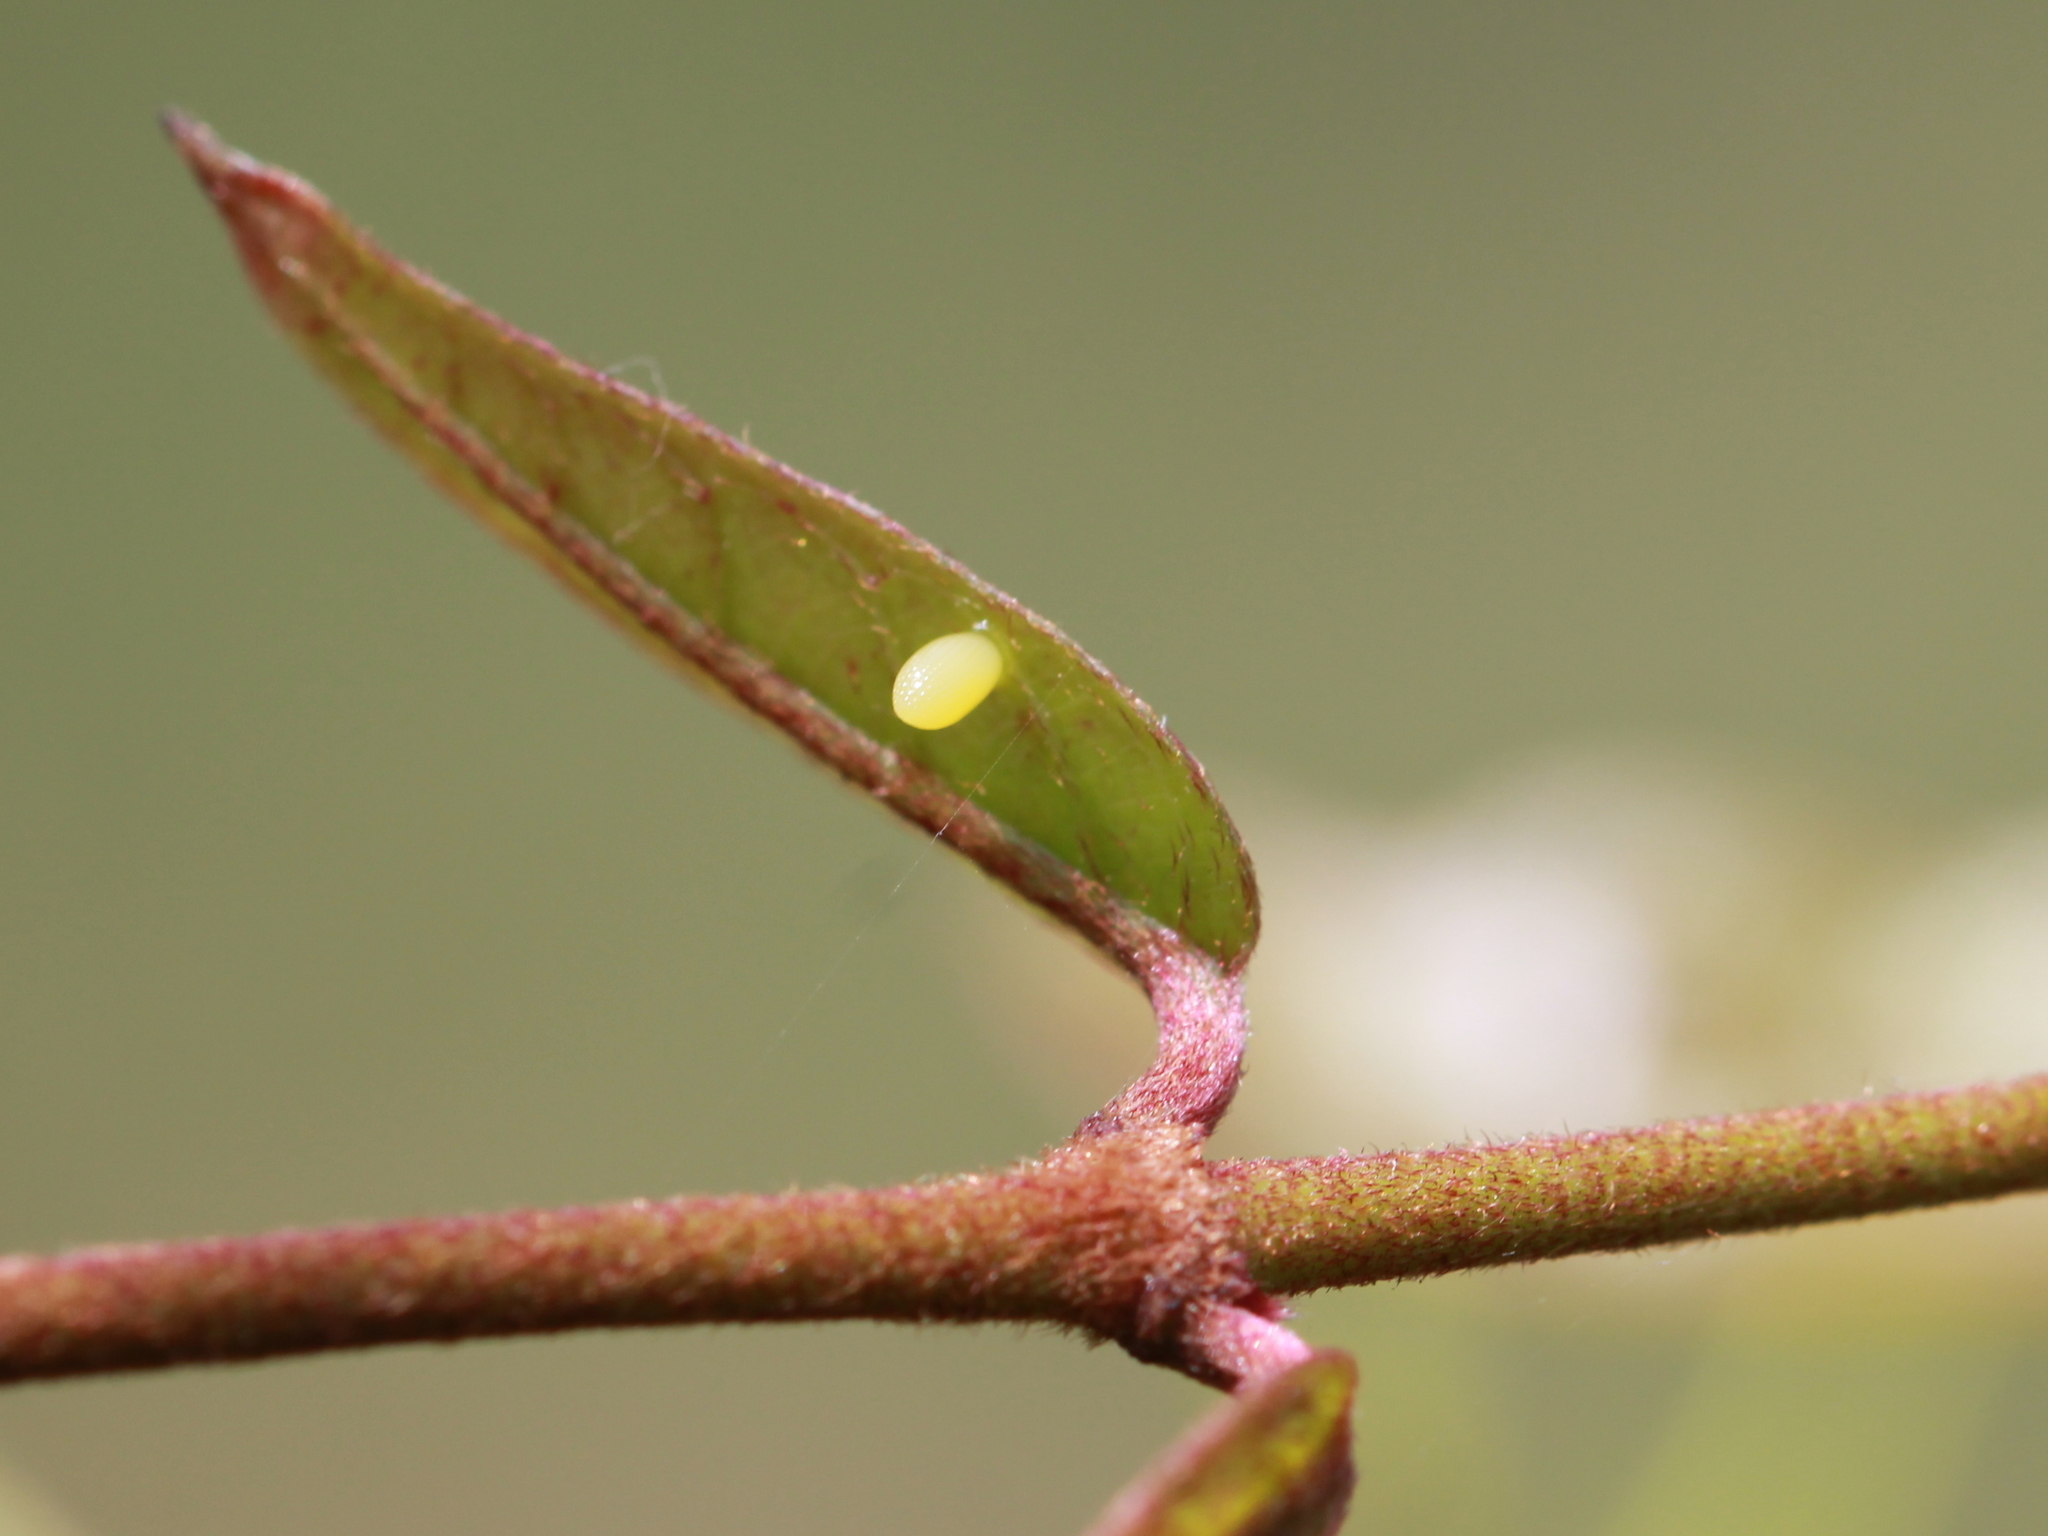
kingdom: Animalia
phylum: Arthropoda
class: Insecta
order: Lepidoptera
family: Pieridae
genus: Eurema
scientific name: Eurema hecabe
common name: Pale grass yellow
